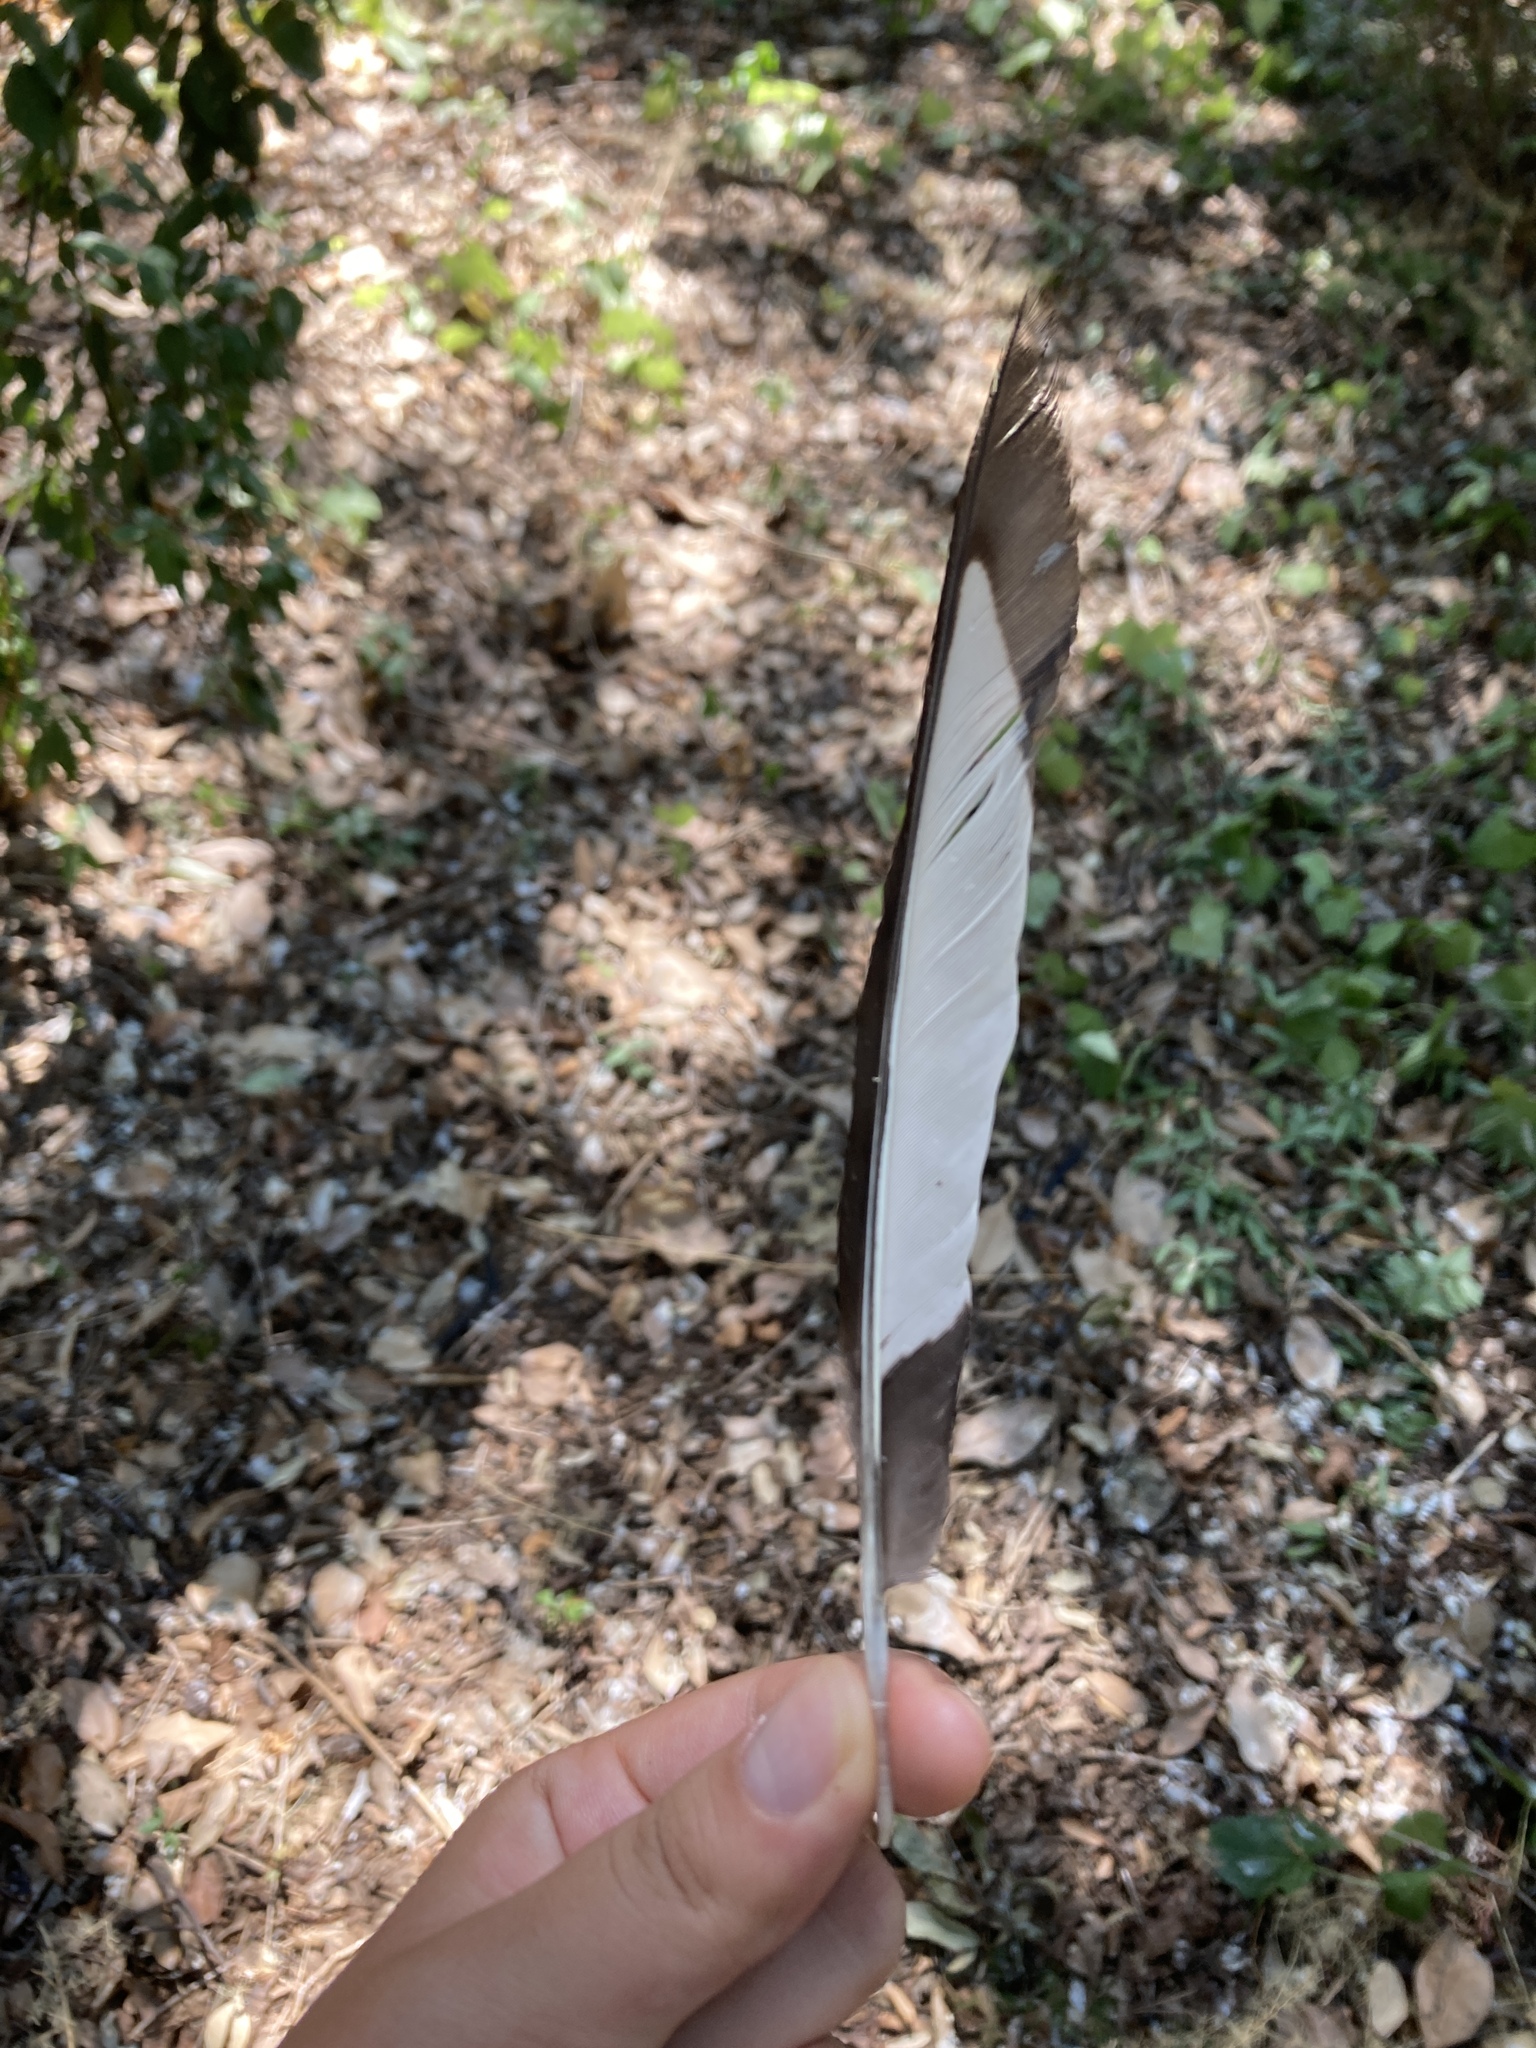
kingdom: Animalia
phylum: Chordata
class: Aves
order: Passeriformes
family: Corvidae
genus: Pica
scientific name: Pica pica
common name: Eurasian magpie
